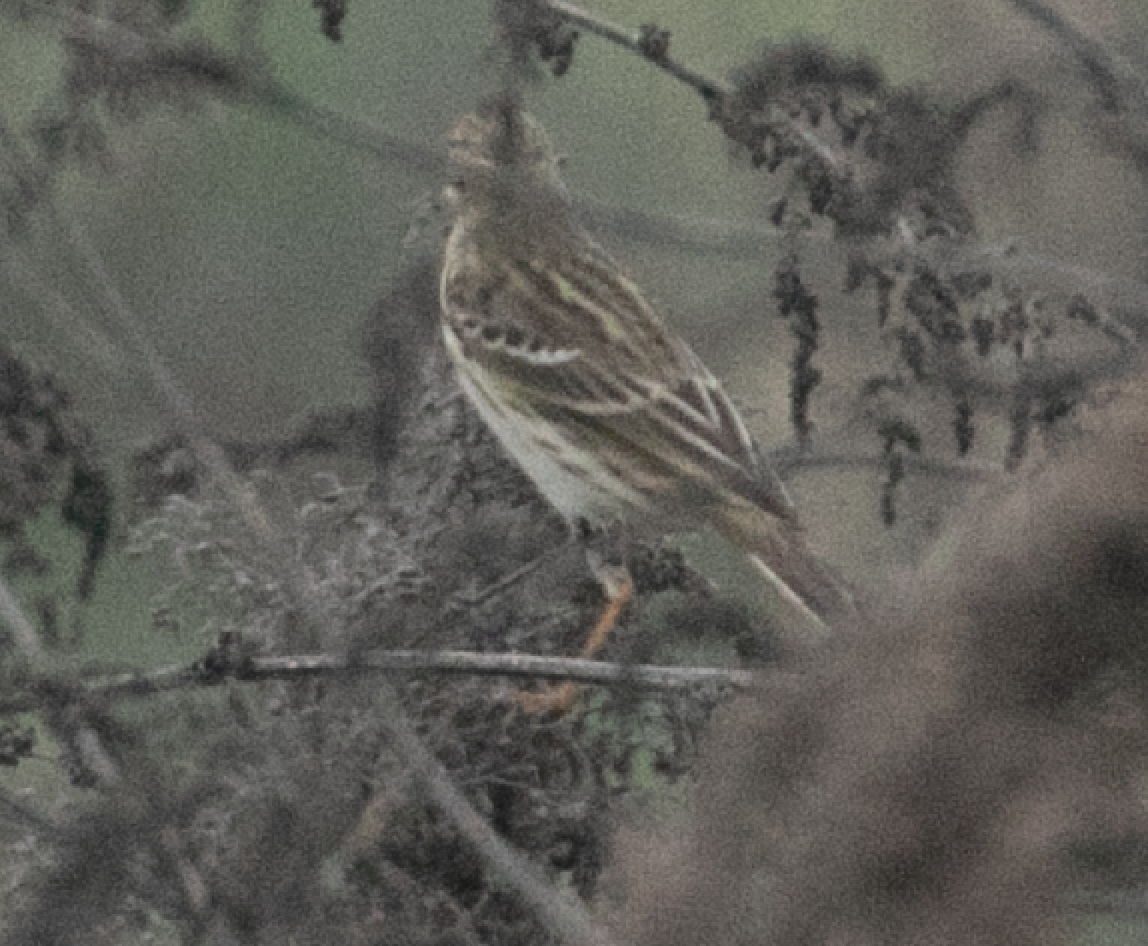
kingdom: Animalia
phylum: Chordata
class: Aves
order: Passeriformes
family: Motacillidae
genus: Anthus
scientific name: Anthus pratensis
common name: Meadow pipit
